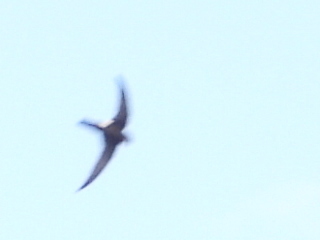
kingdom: Animalia
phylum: Chordata
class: Aves
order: Apodiformes
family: Apodidae
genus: Apus
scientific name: Apus pacificus
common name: Pacific swift
